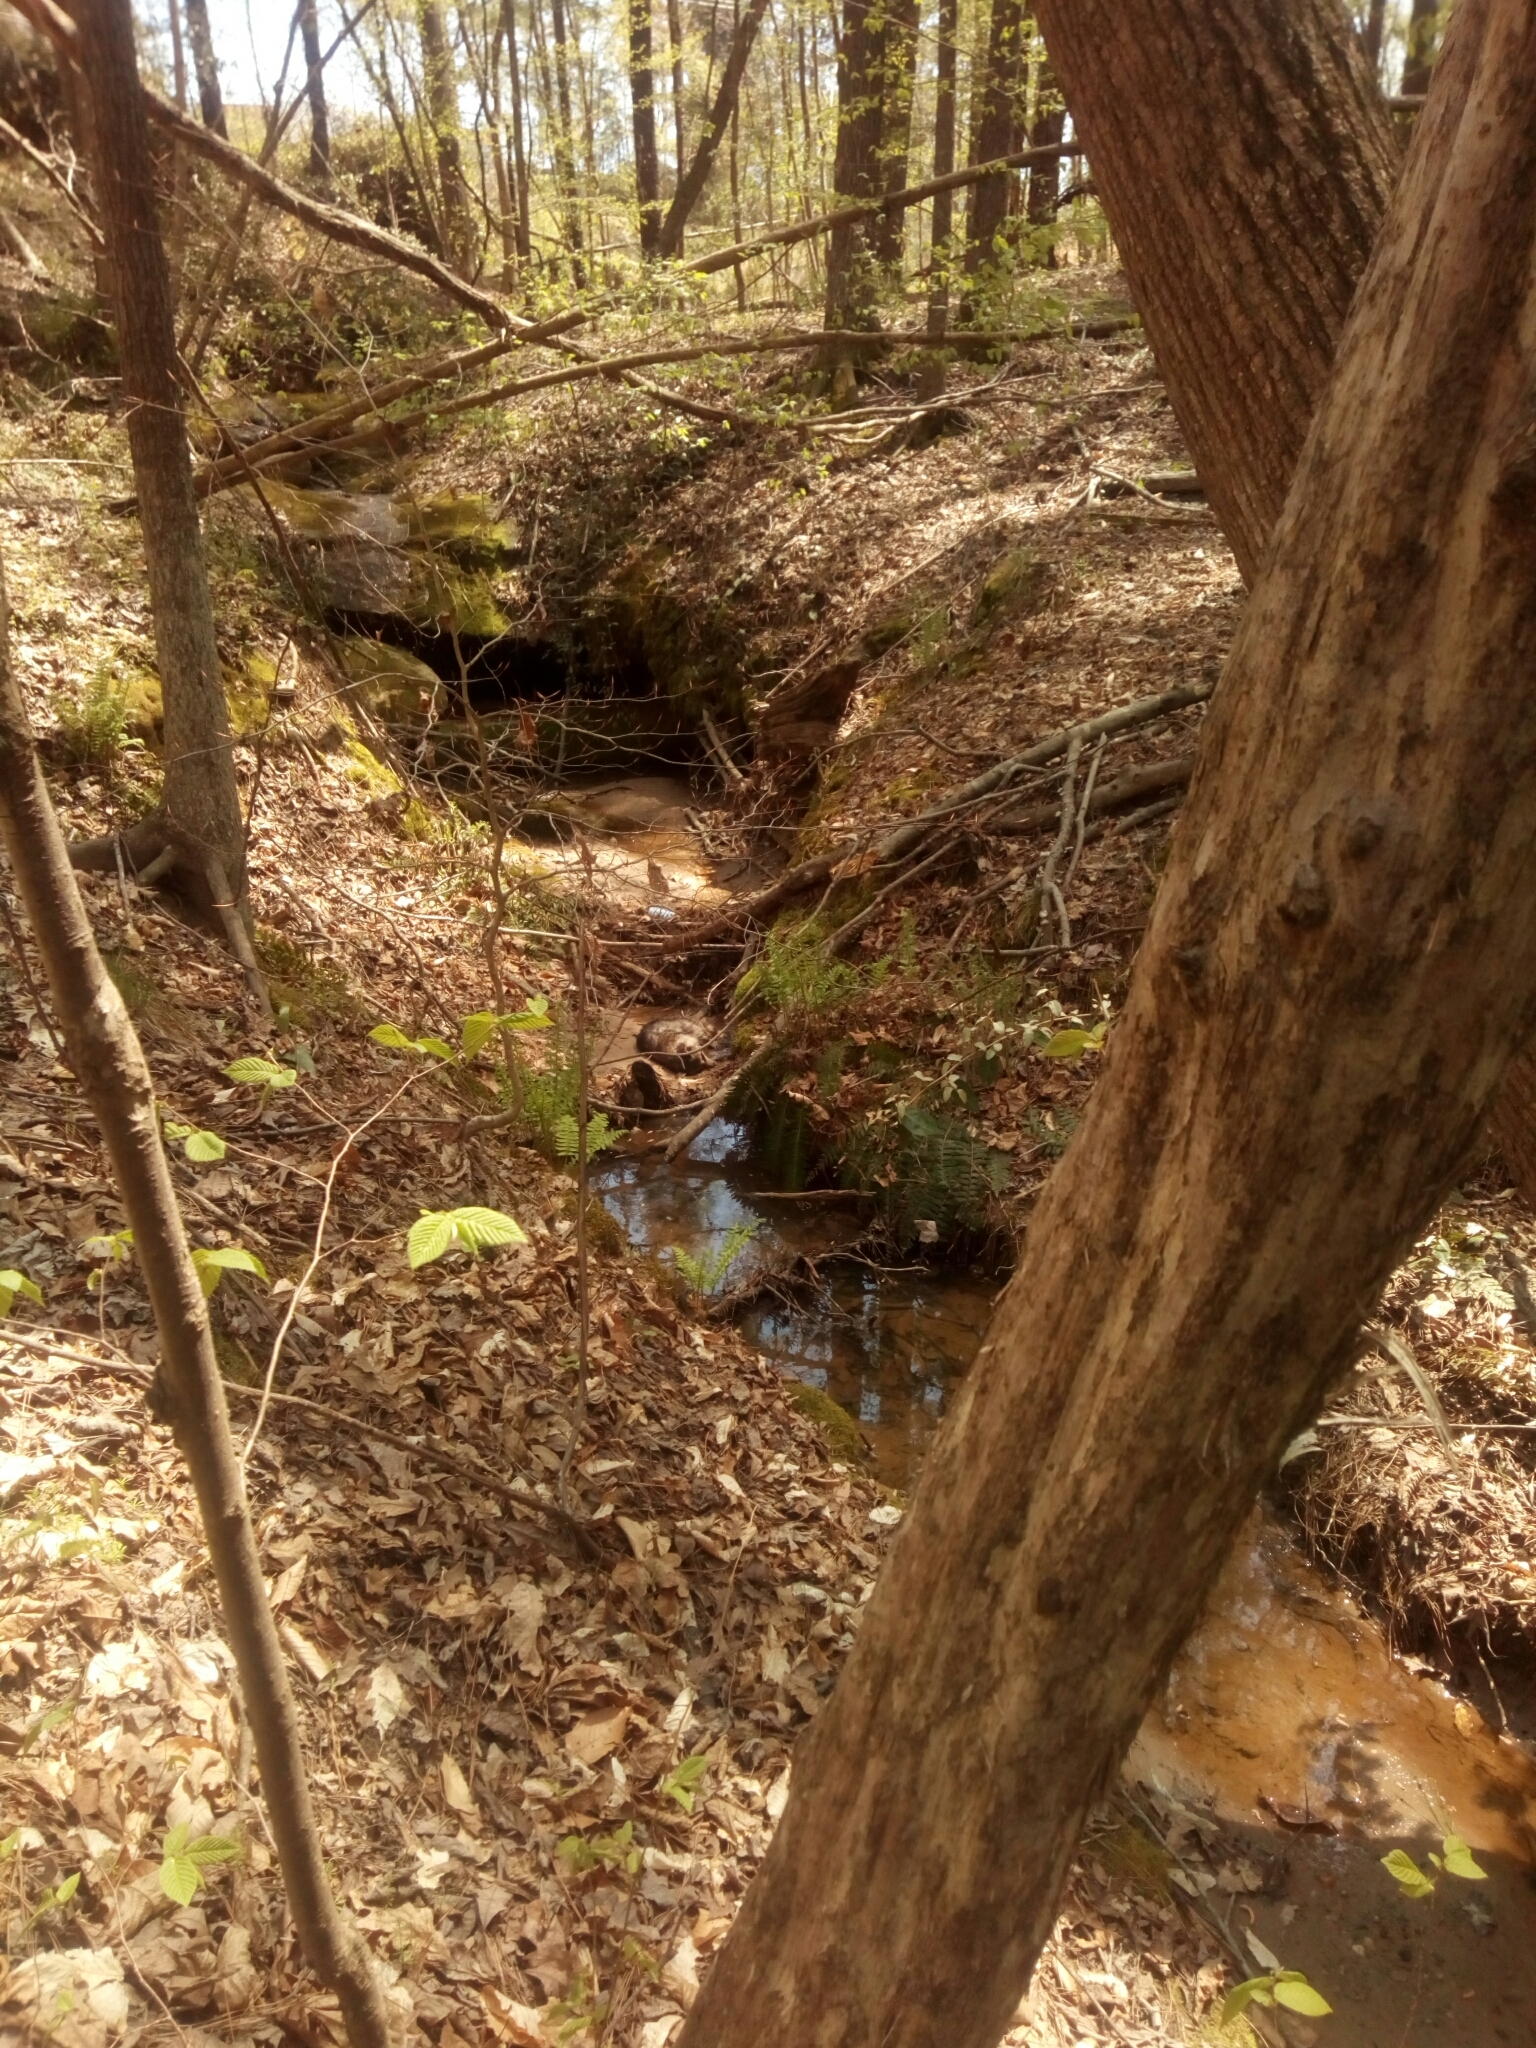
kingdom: Animalia
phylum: Chordata
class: Mammalia
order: Carnivora
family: Procyonidae
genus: Procyon
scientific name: Procyon lotor
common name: Raccoon
